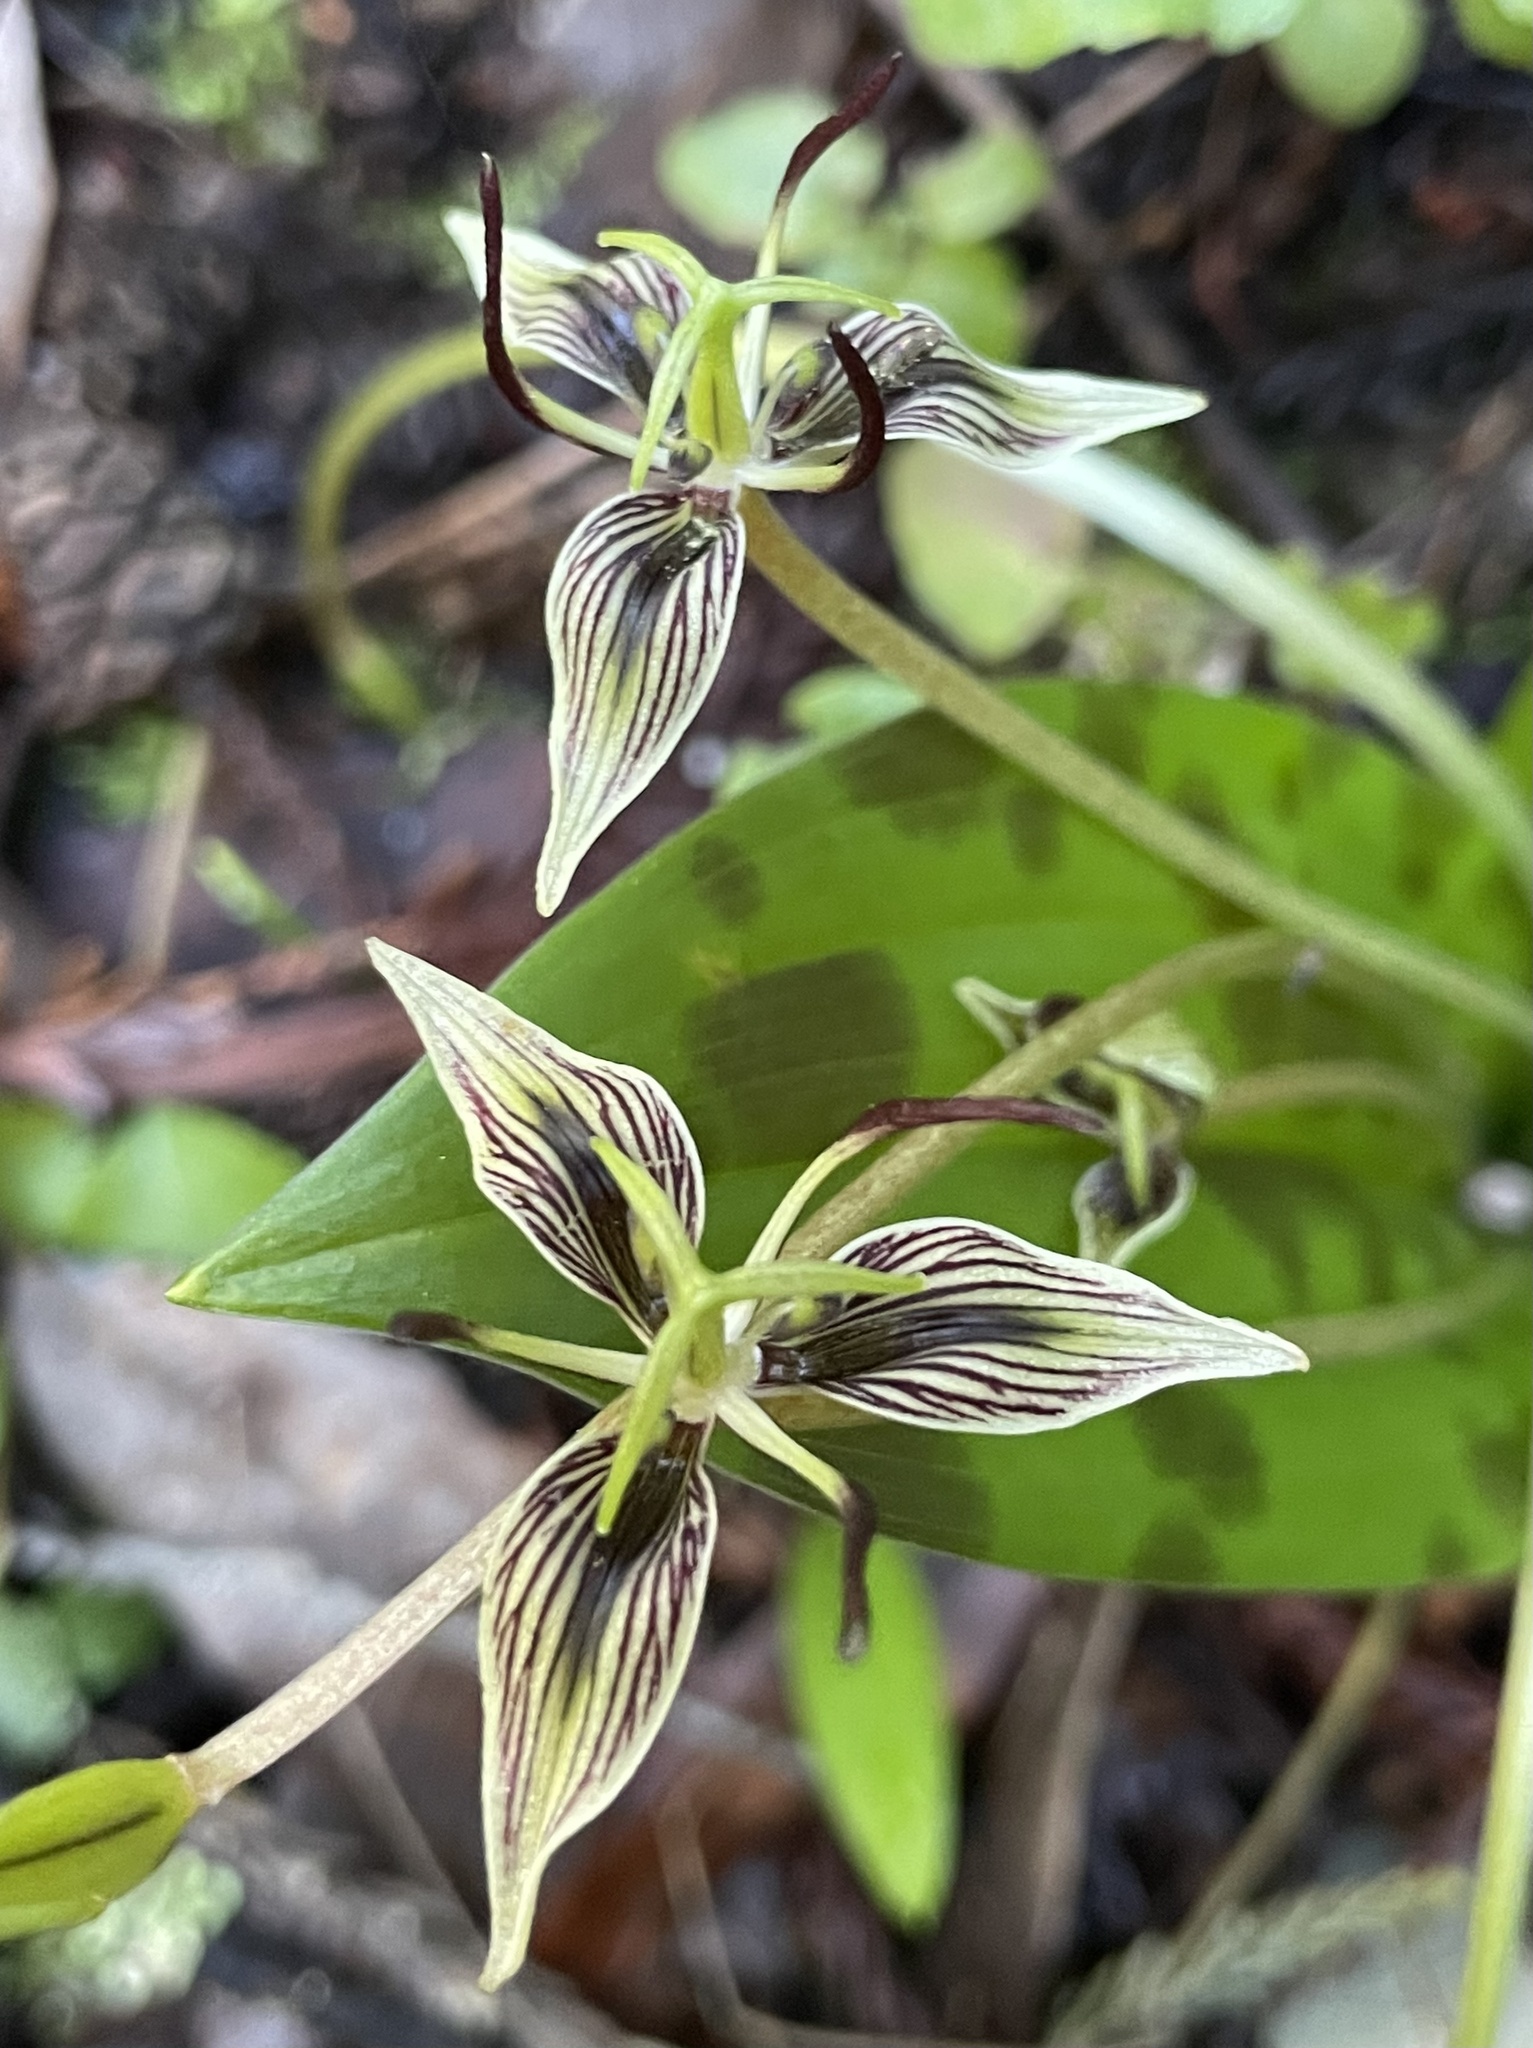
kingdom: Plantae
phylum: Tracheophyta
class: Liliopsida
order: Liliales
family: Liliaceae
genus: Scoliopus
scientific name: Scoliopus bigelovii
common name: Foetid adder's-tongue
